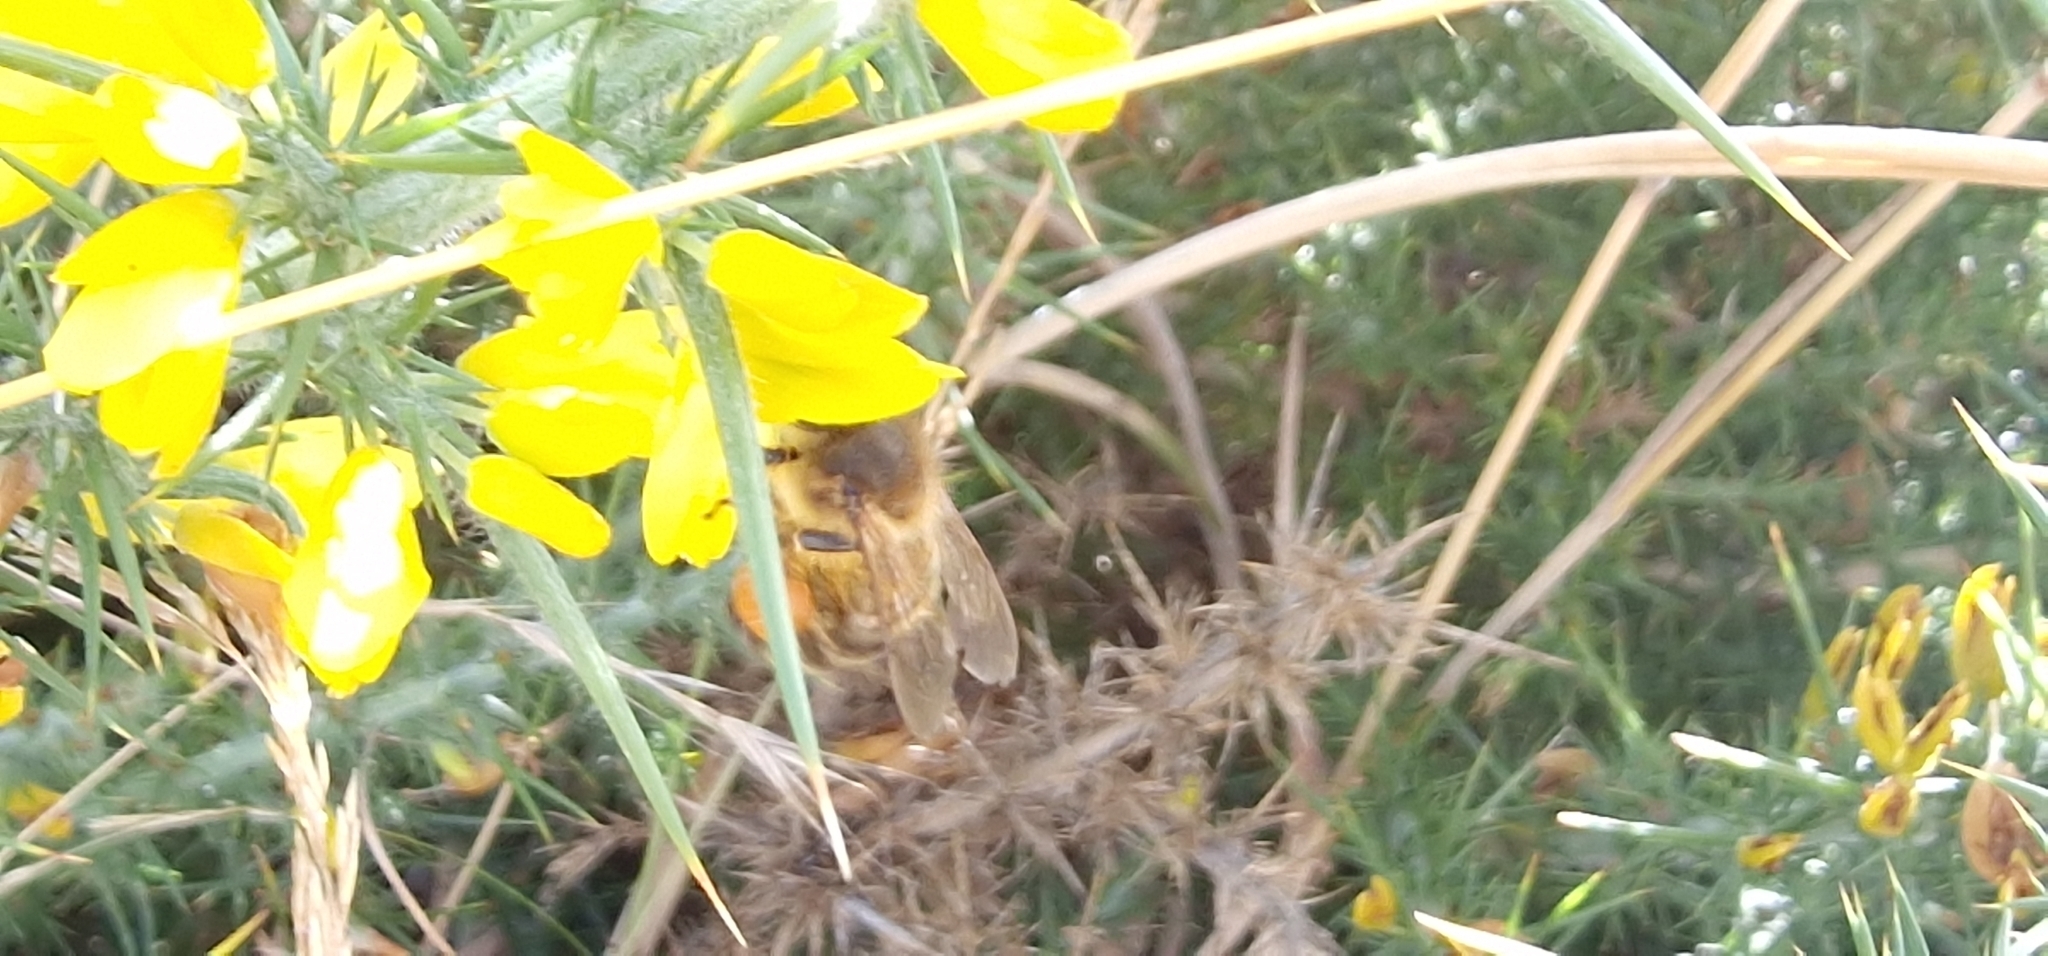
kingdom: Animalia
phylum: Arthropoda
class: Insecta
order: Hymenoptera
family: Apidae
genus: Apis
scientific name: Apis mellifera
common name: Honey bee
